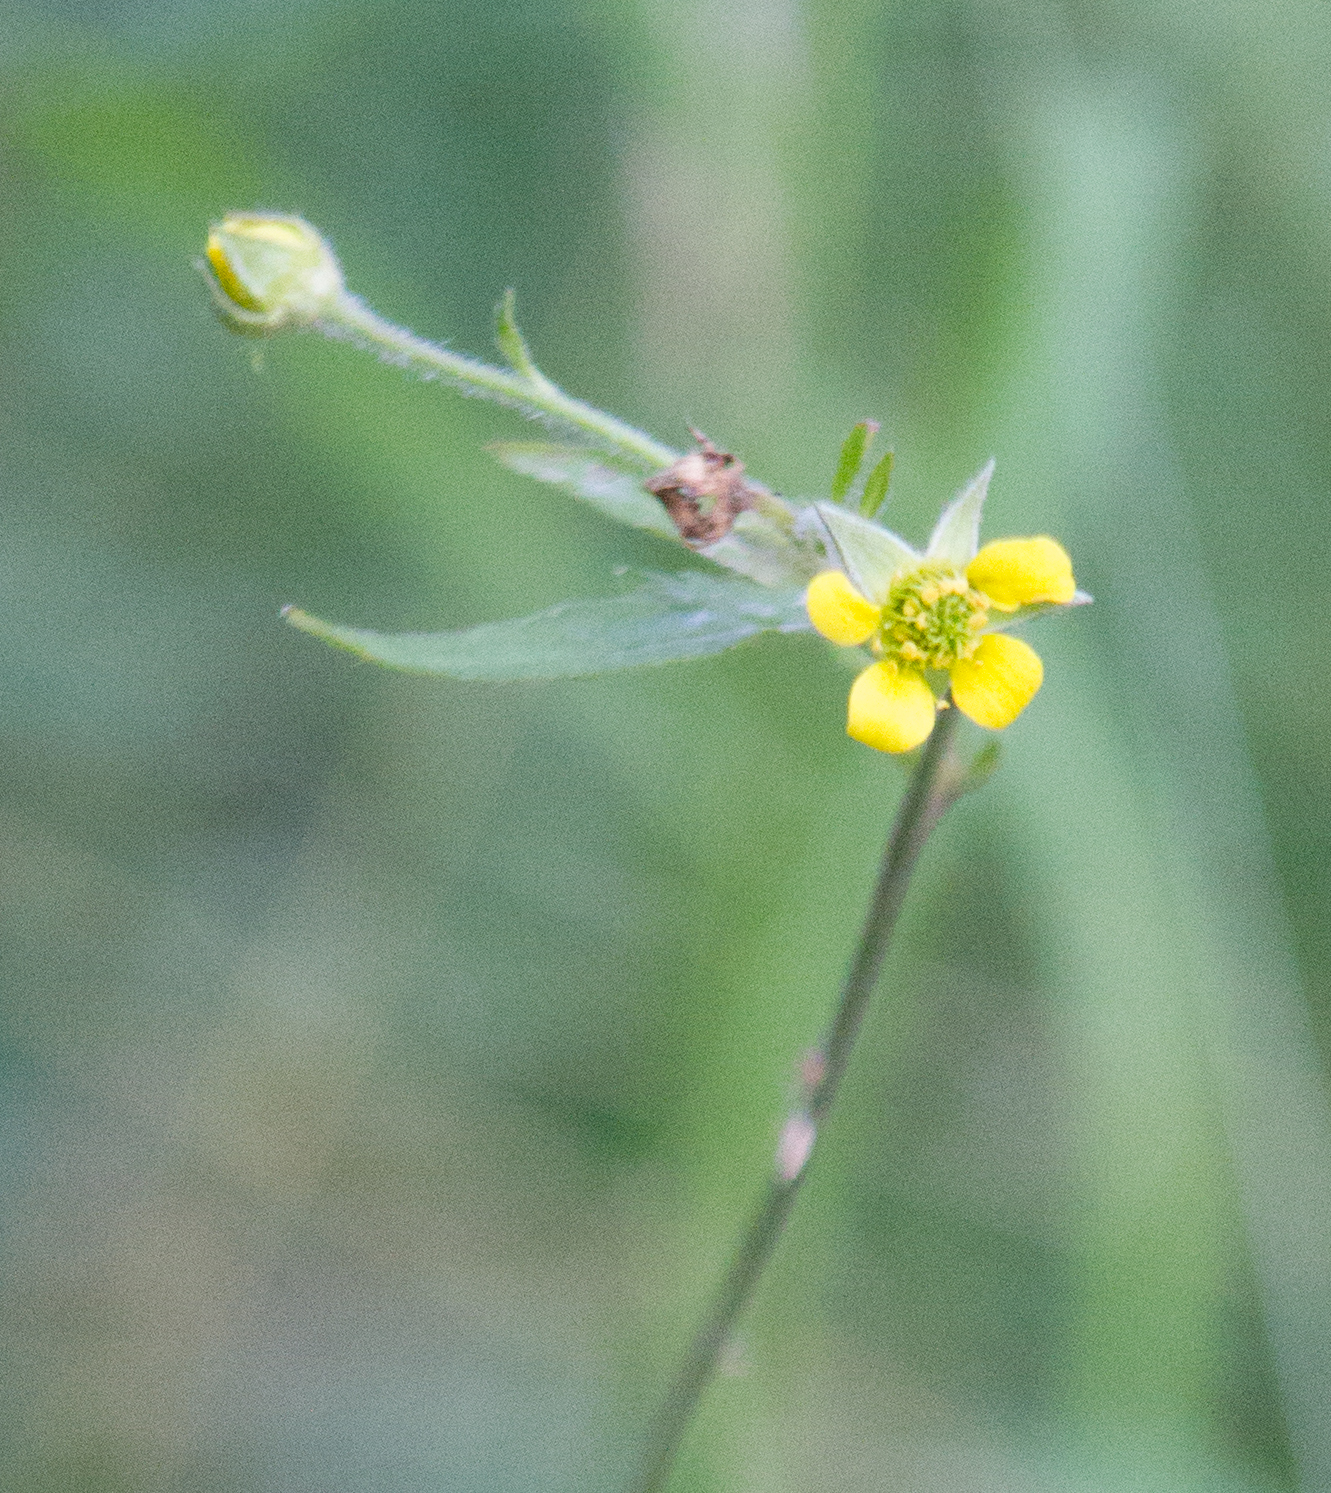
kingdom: Plantae
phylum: Tracheophyta
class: Magnoliopsida
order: Rosales
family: Rosaceae
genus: Geum
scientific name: Geum urbanum
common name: Wood avens
